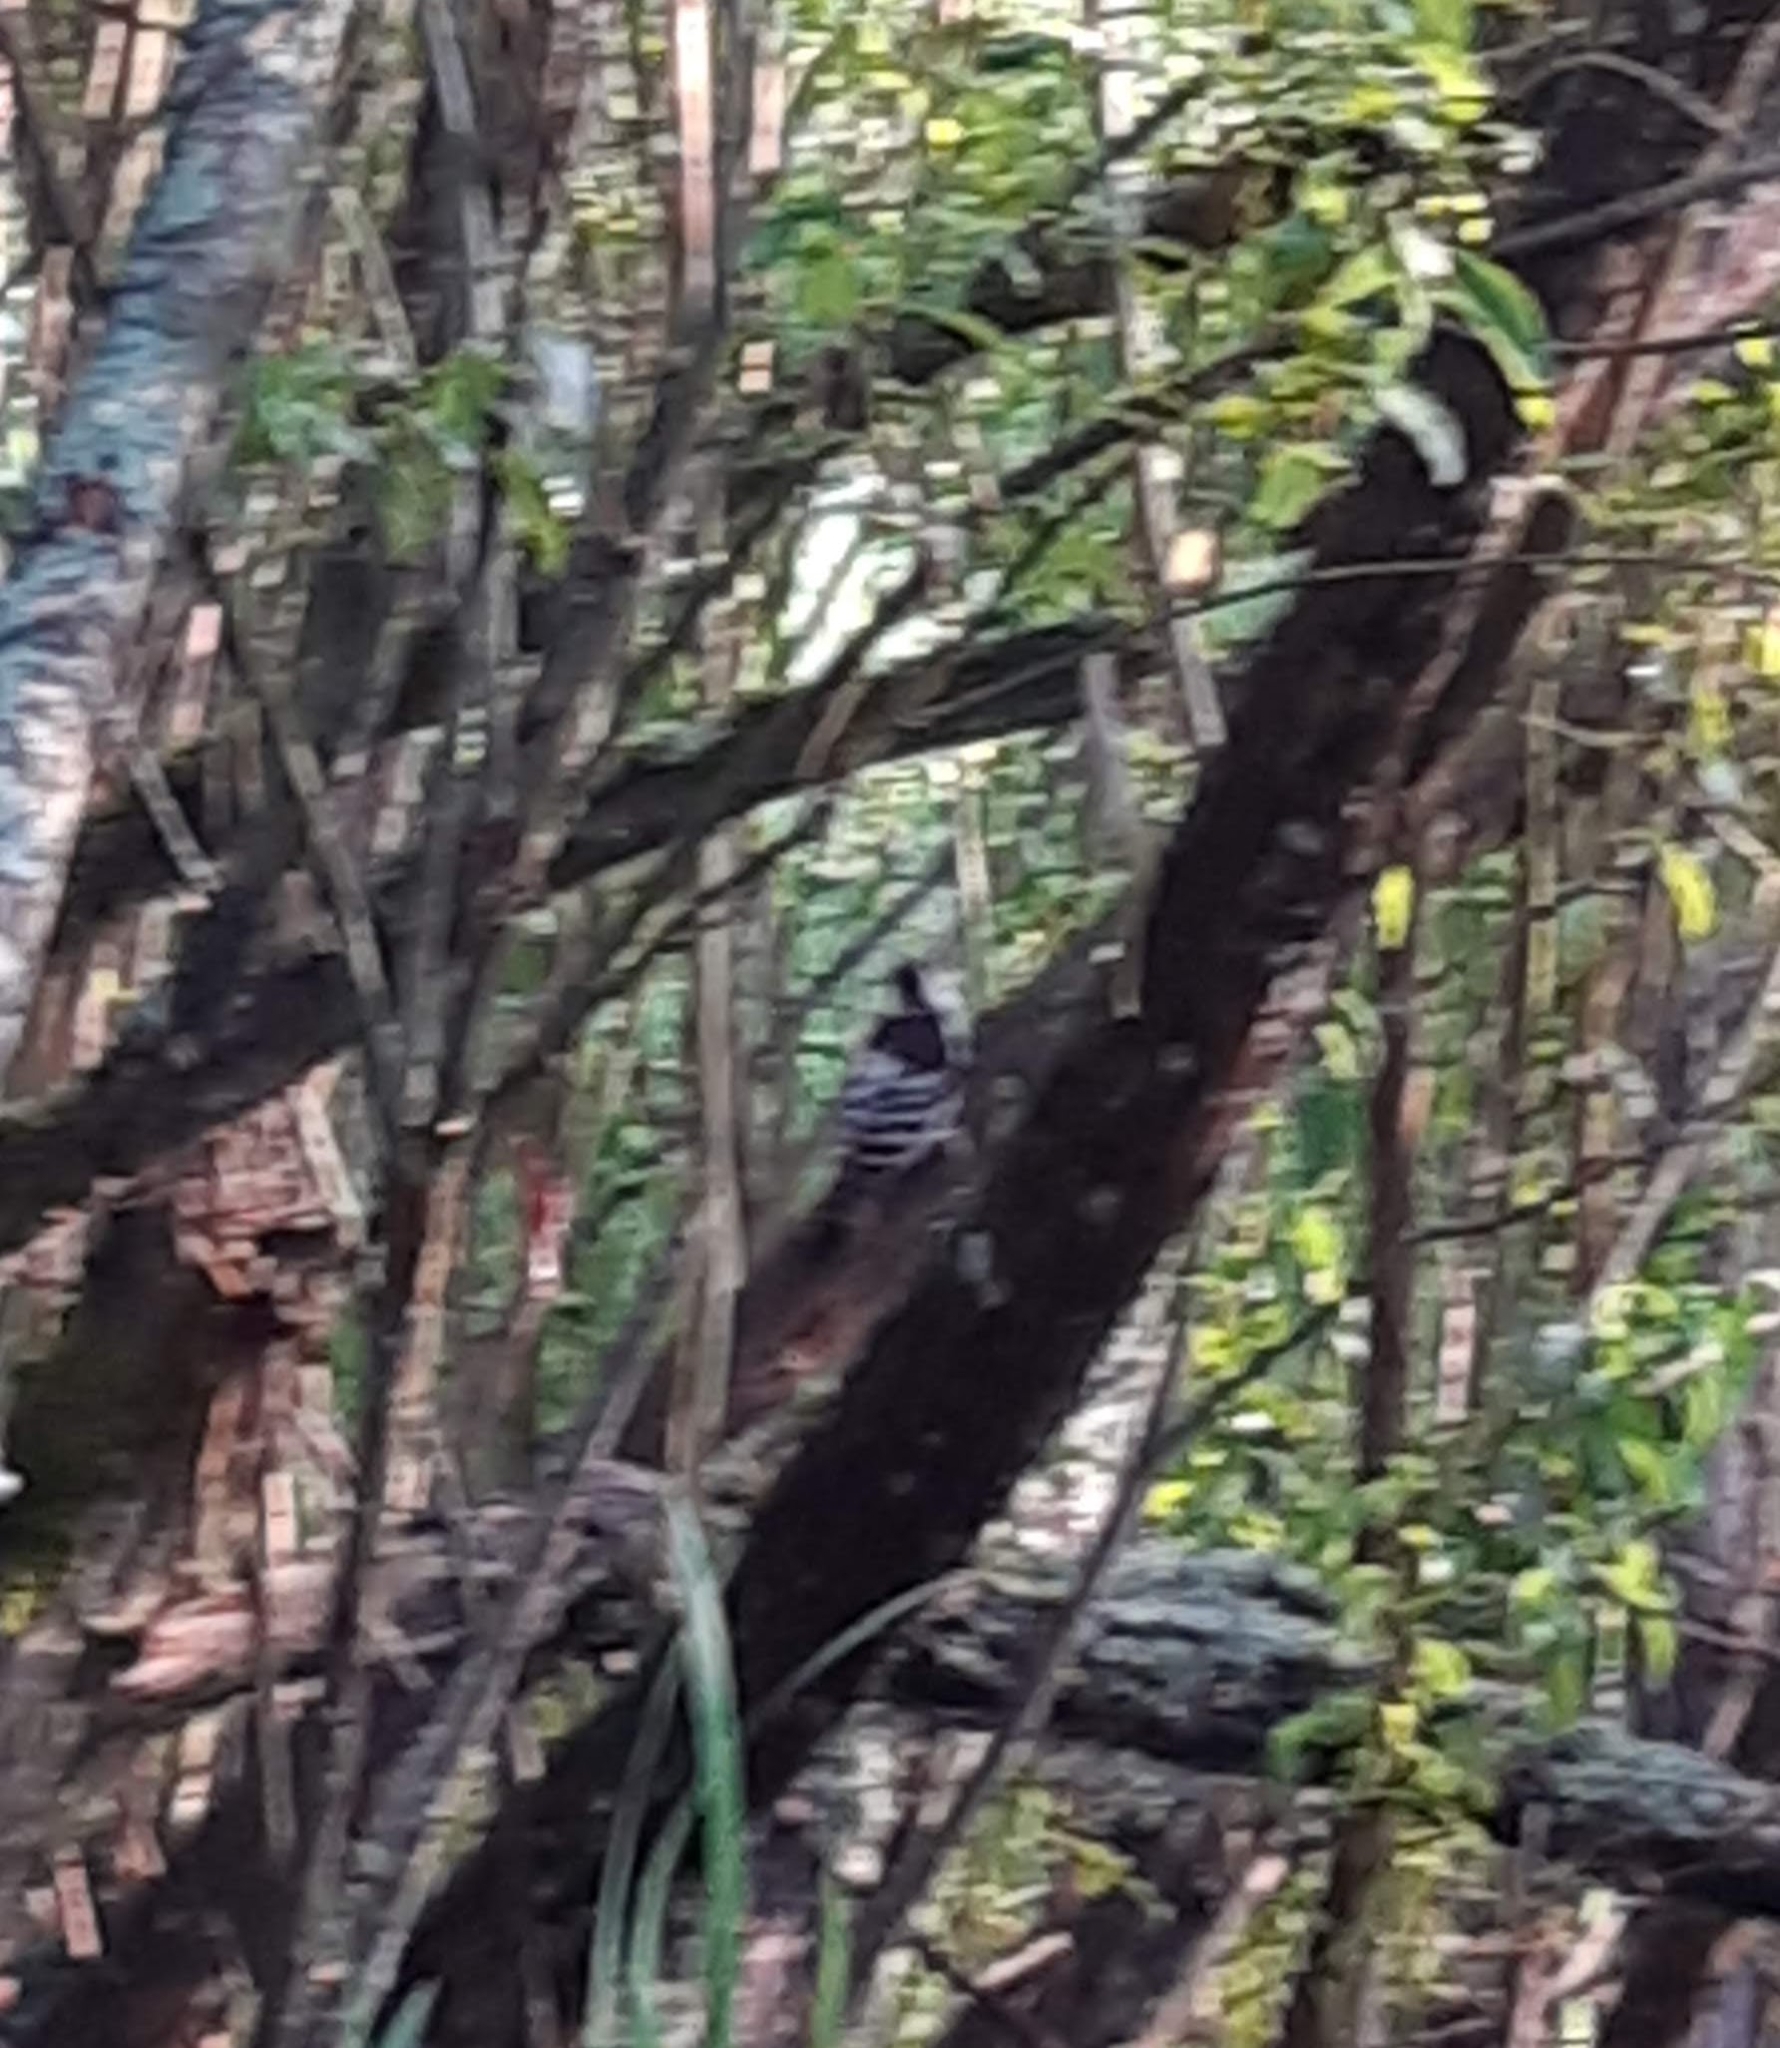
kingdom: Animalia
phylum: Chordata
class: Aves
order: Piciformes
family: Picidae
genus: Dendrocopos
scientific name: Dendrocopos leucotos
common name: White-backed woodpecker
